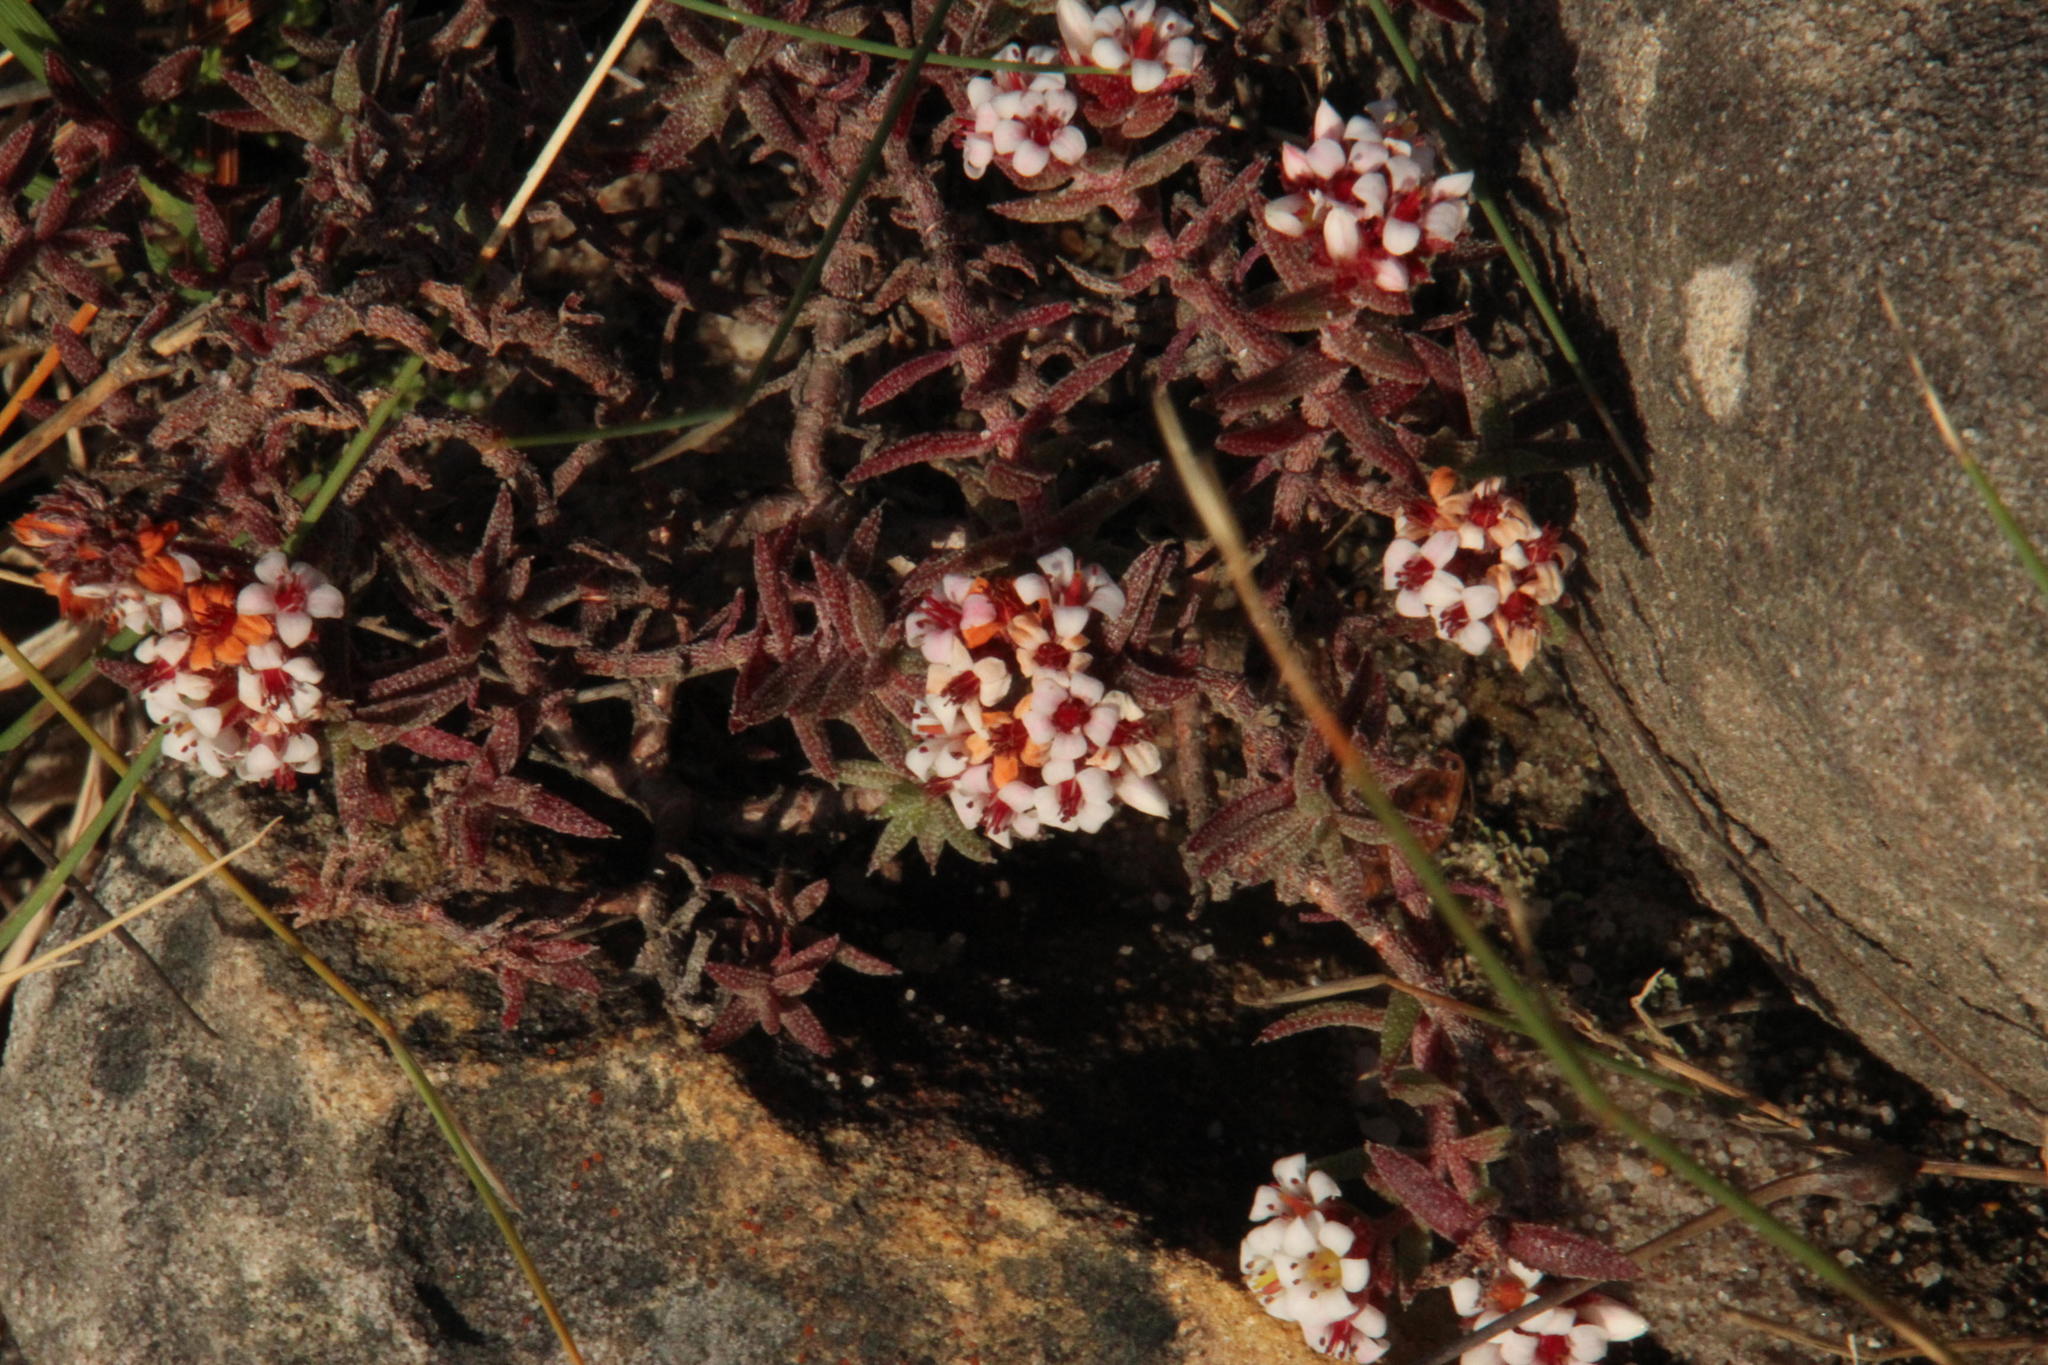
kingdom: Plantae
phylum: Tracheophyta
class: Magnoliopsida
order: Saxifragales
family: Crassulaceae
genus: Crassula
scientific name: Crassula pruinosa
